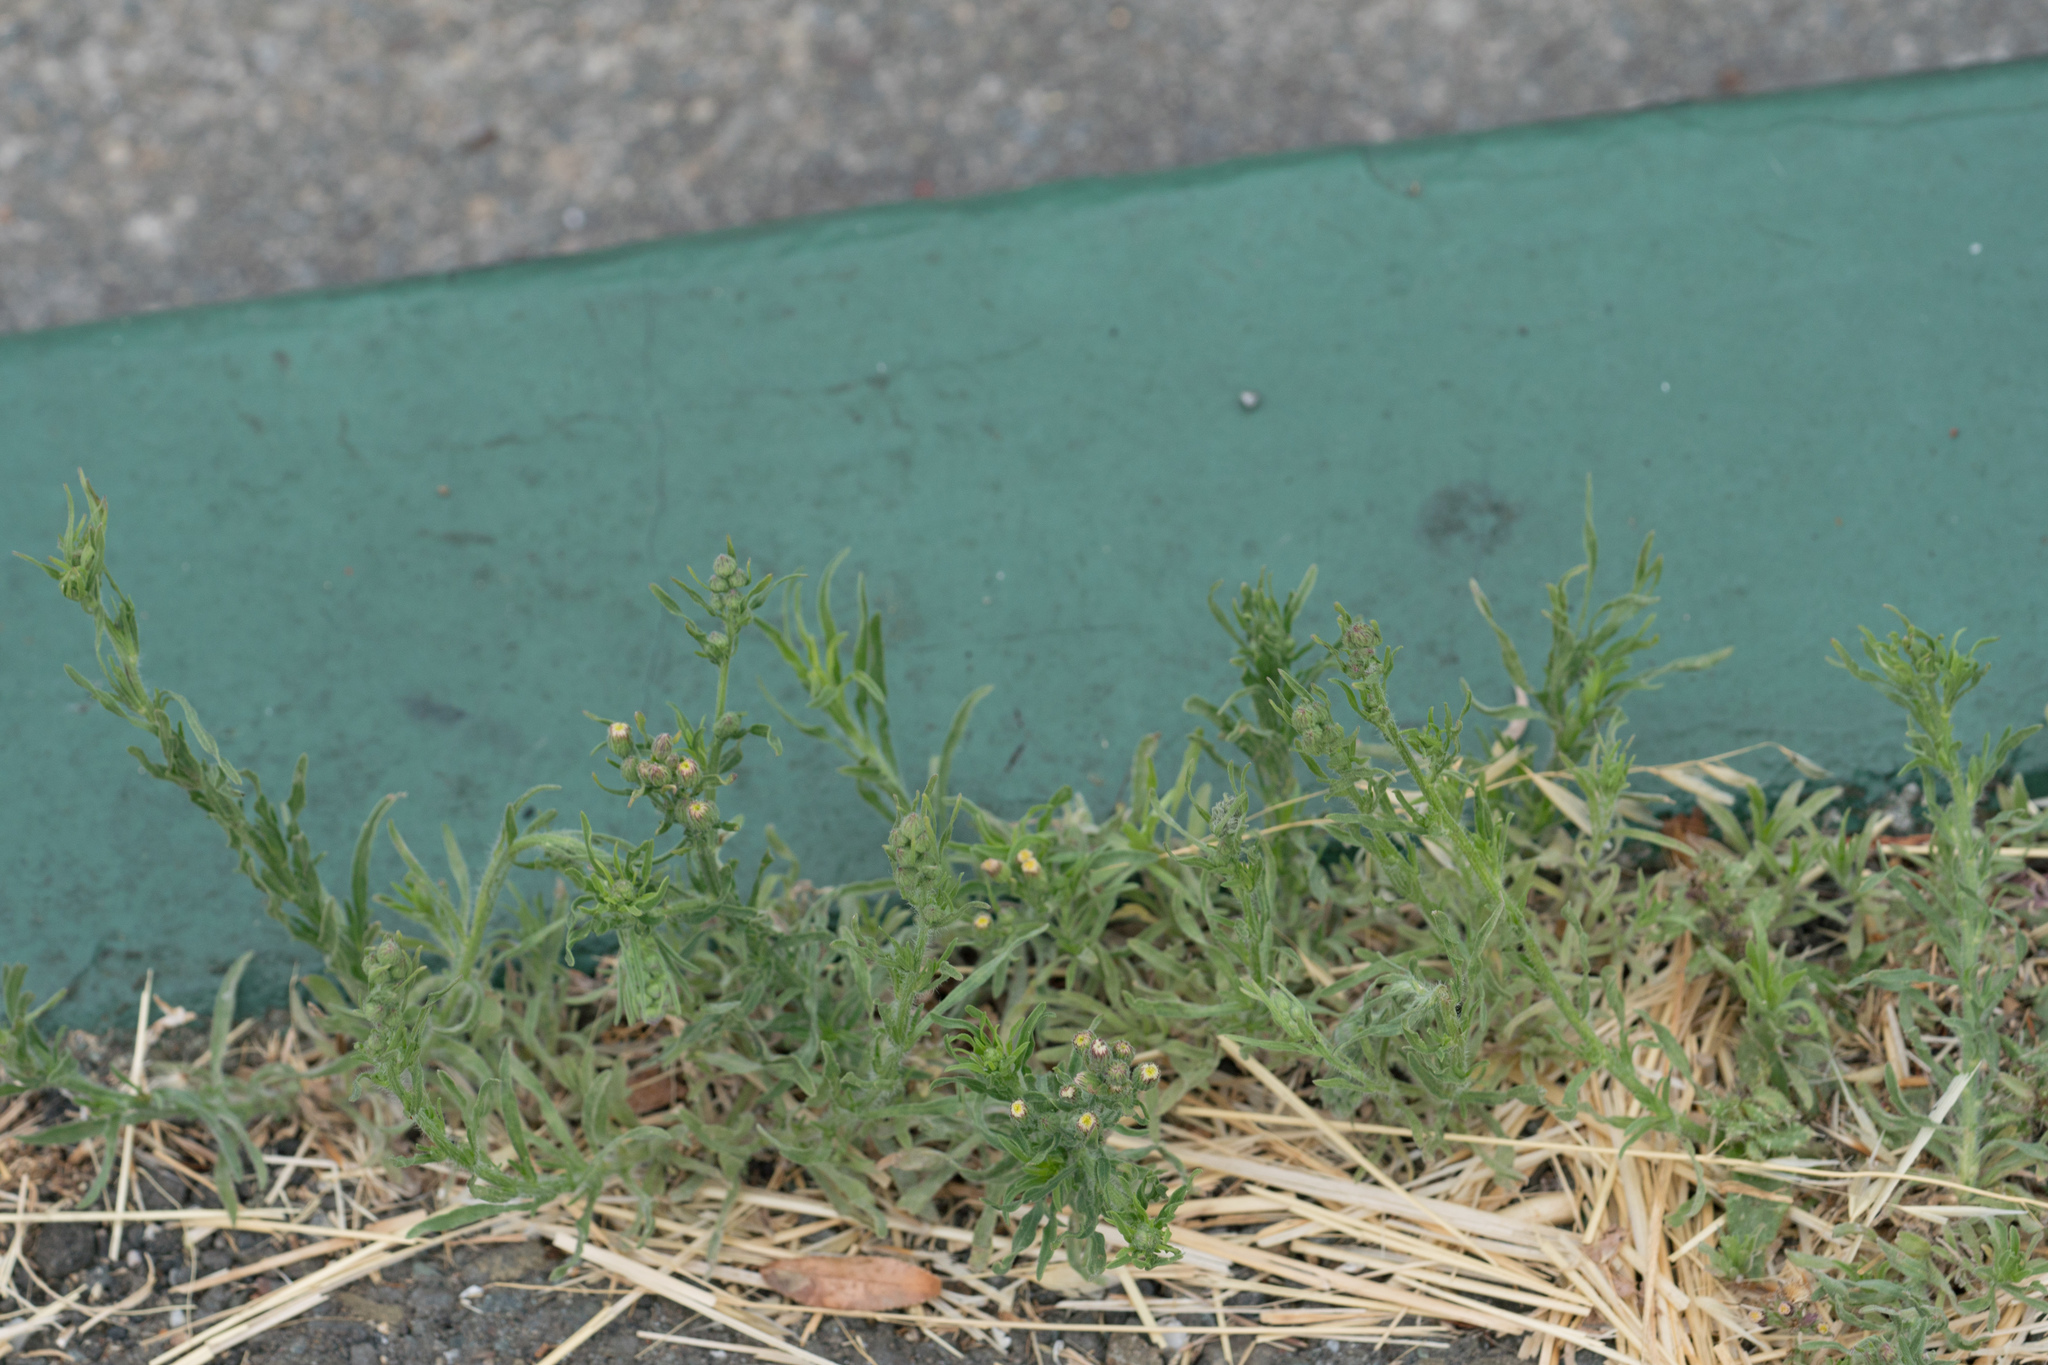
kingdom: Plantae
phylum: Tracheophyta
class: Magnoliopsida
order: Asterales
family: Asteraceae
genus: Erigeron
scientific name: Erigeron bonariensis
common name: Argentine fleabane
